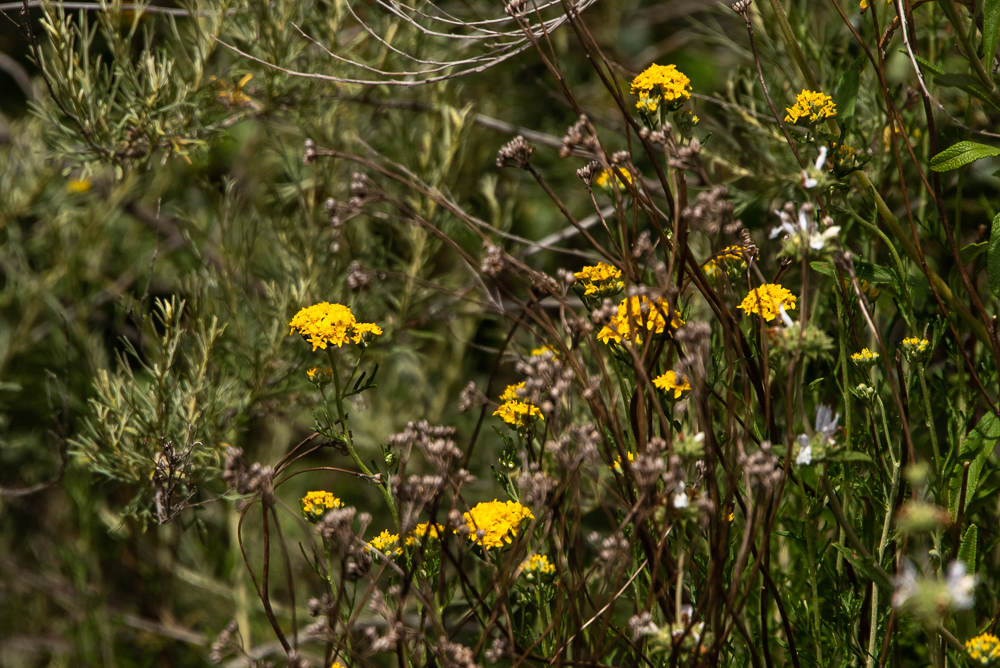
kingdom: Plantae
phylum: Tracheophyta
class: Magnoliopsida
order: Asterales
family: Asteraceae
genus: Eriophyllum
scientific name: Eriophyllum confertiflorum
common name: Golden-yarrow
